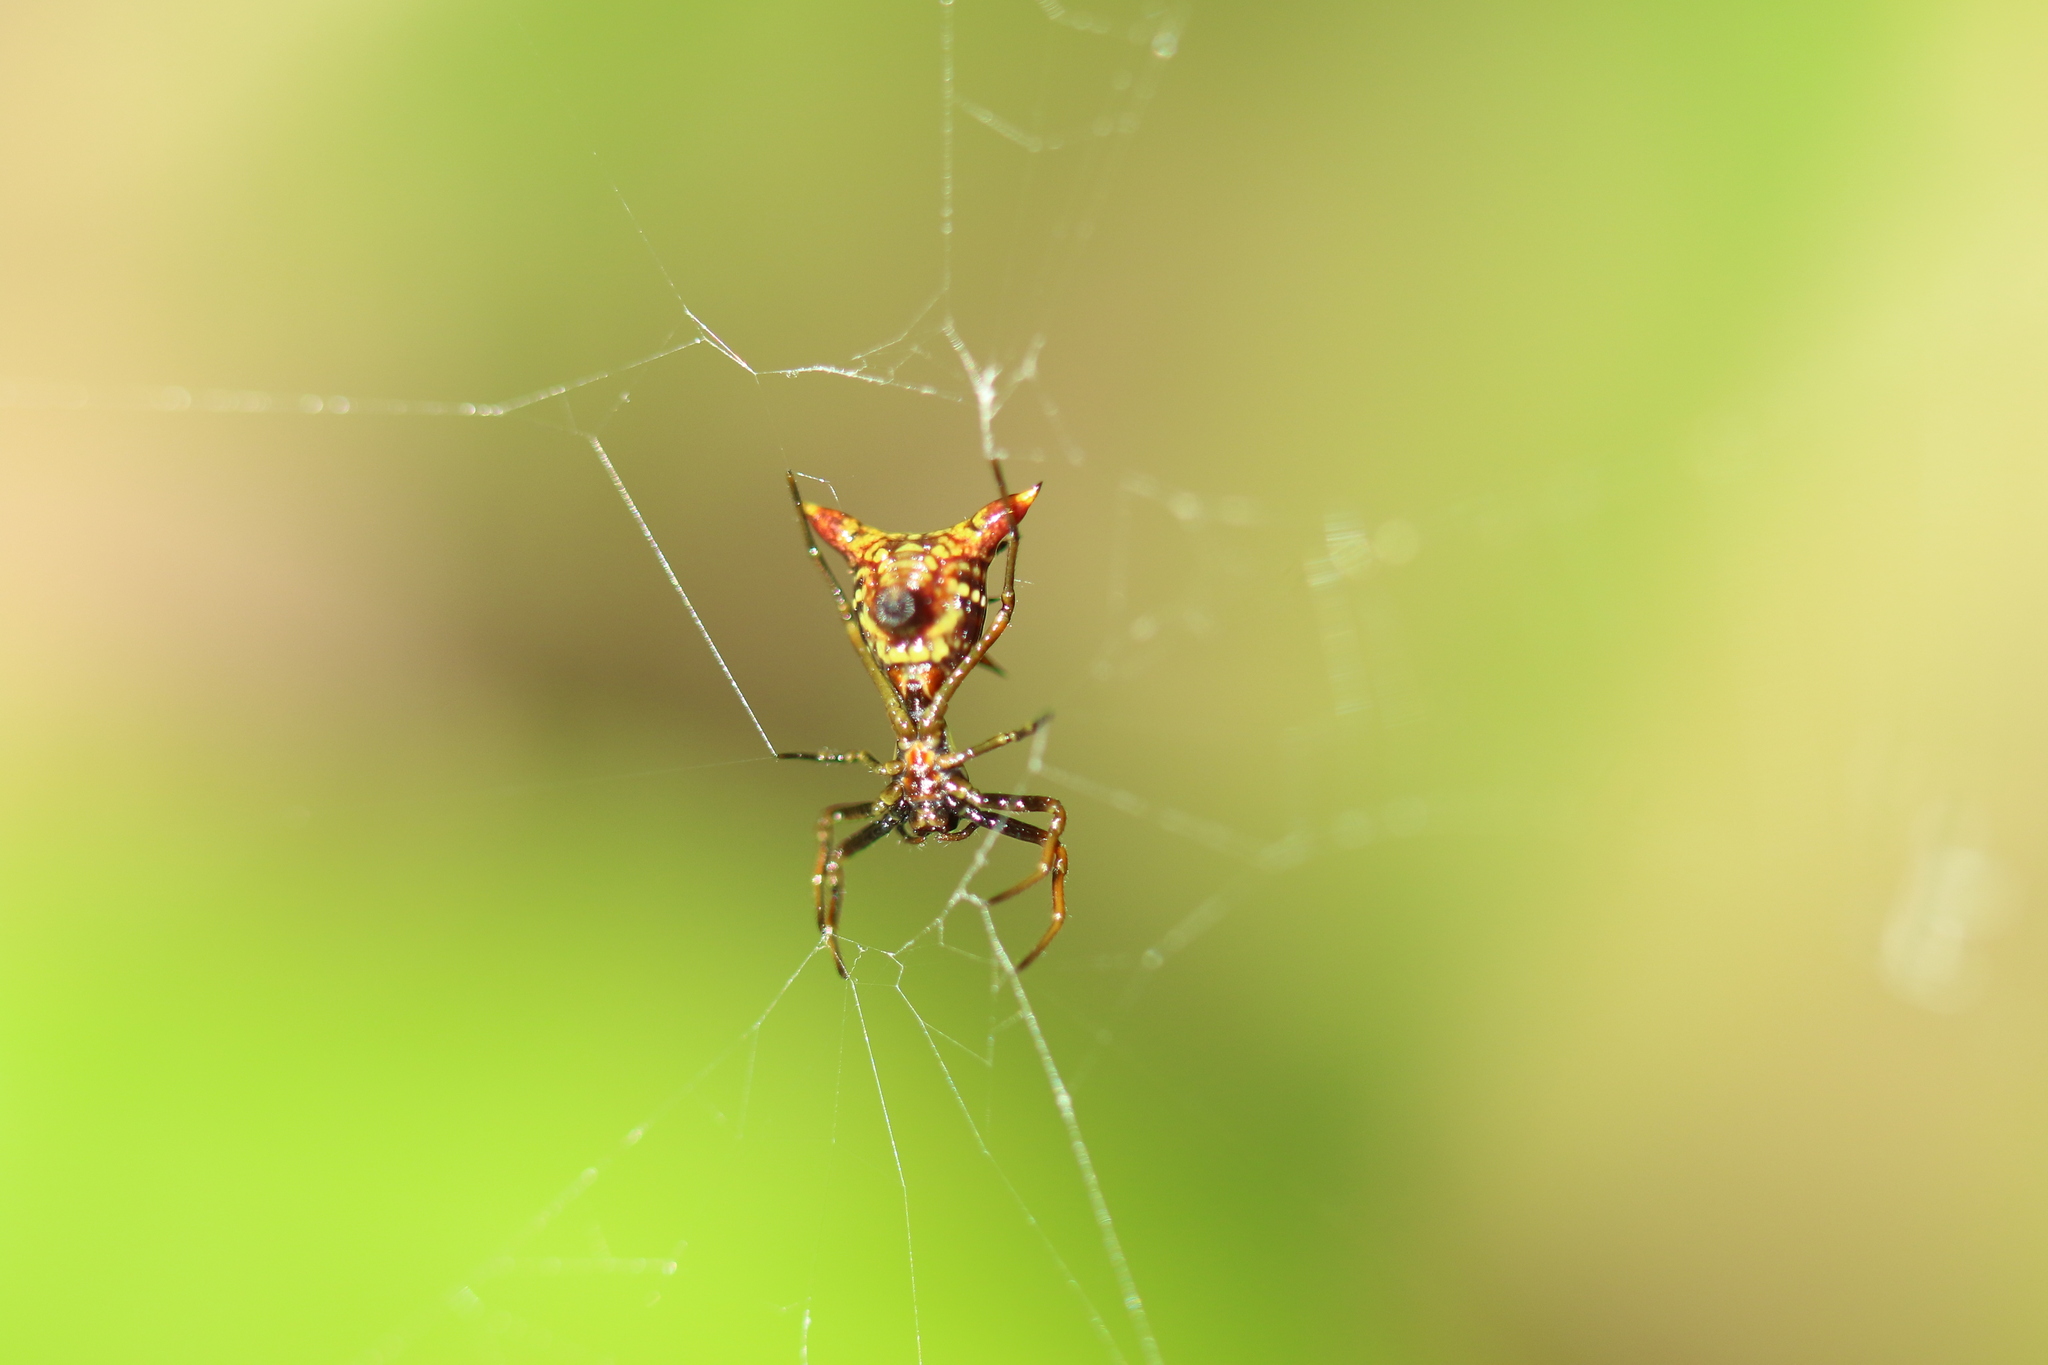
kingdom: Animalia
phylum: Arthropoda
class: Arachnida
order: Araneae
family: Araneidae
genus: Micrathena
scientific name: Micrathena sagittata
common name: Orb weavers
